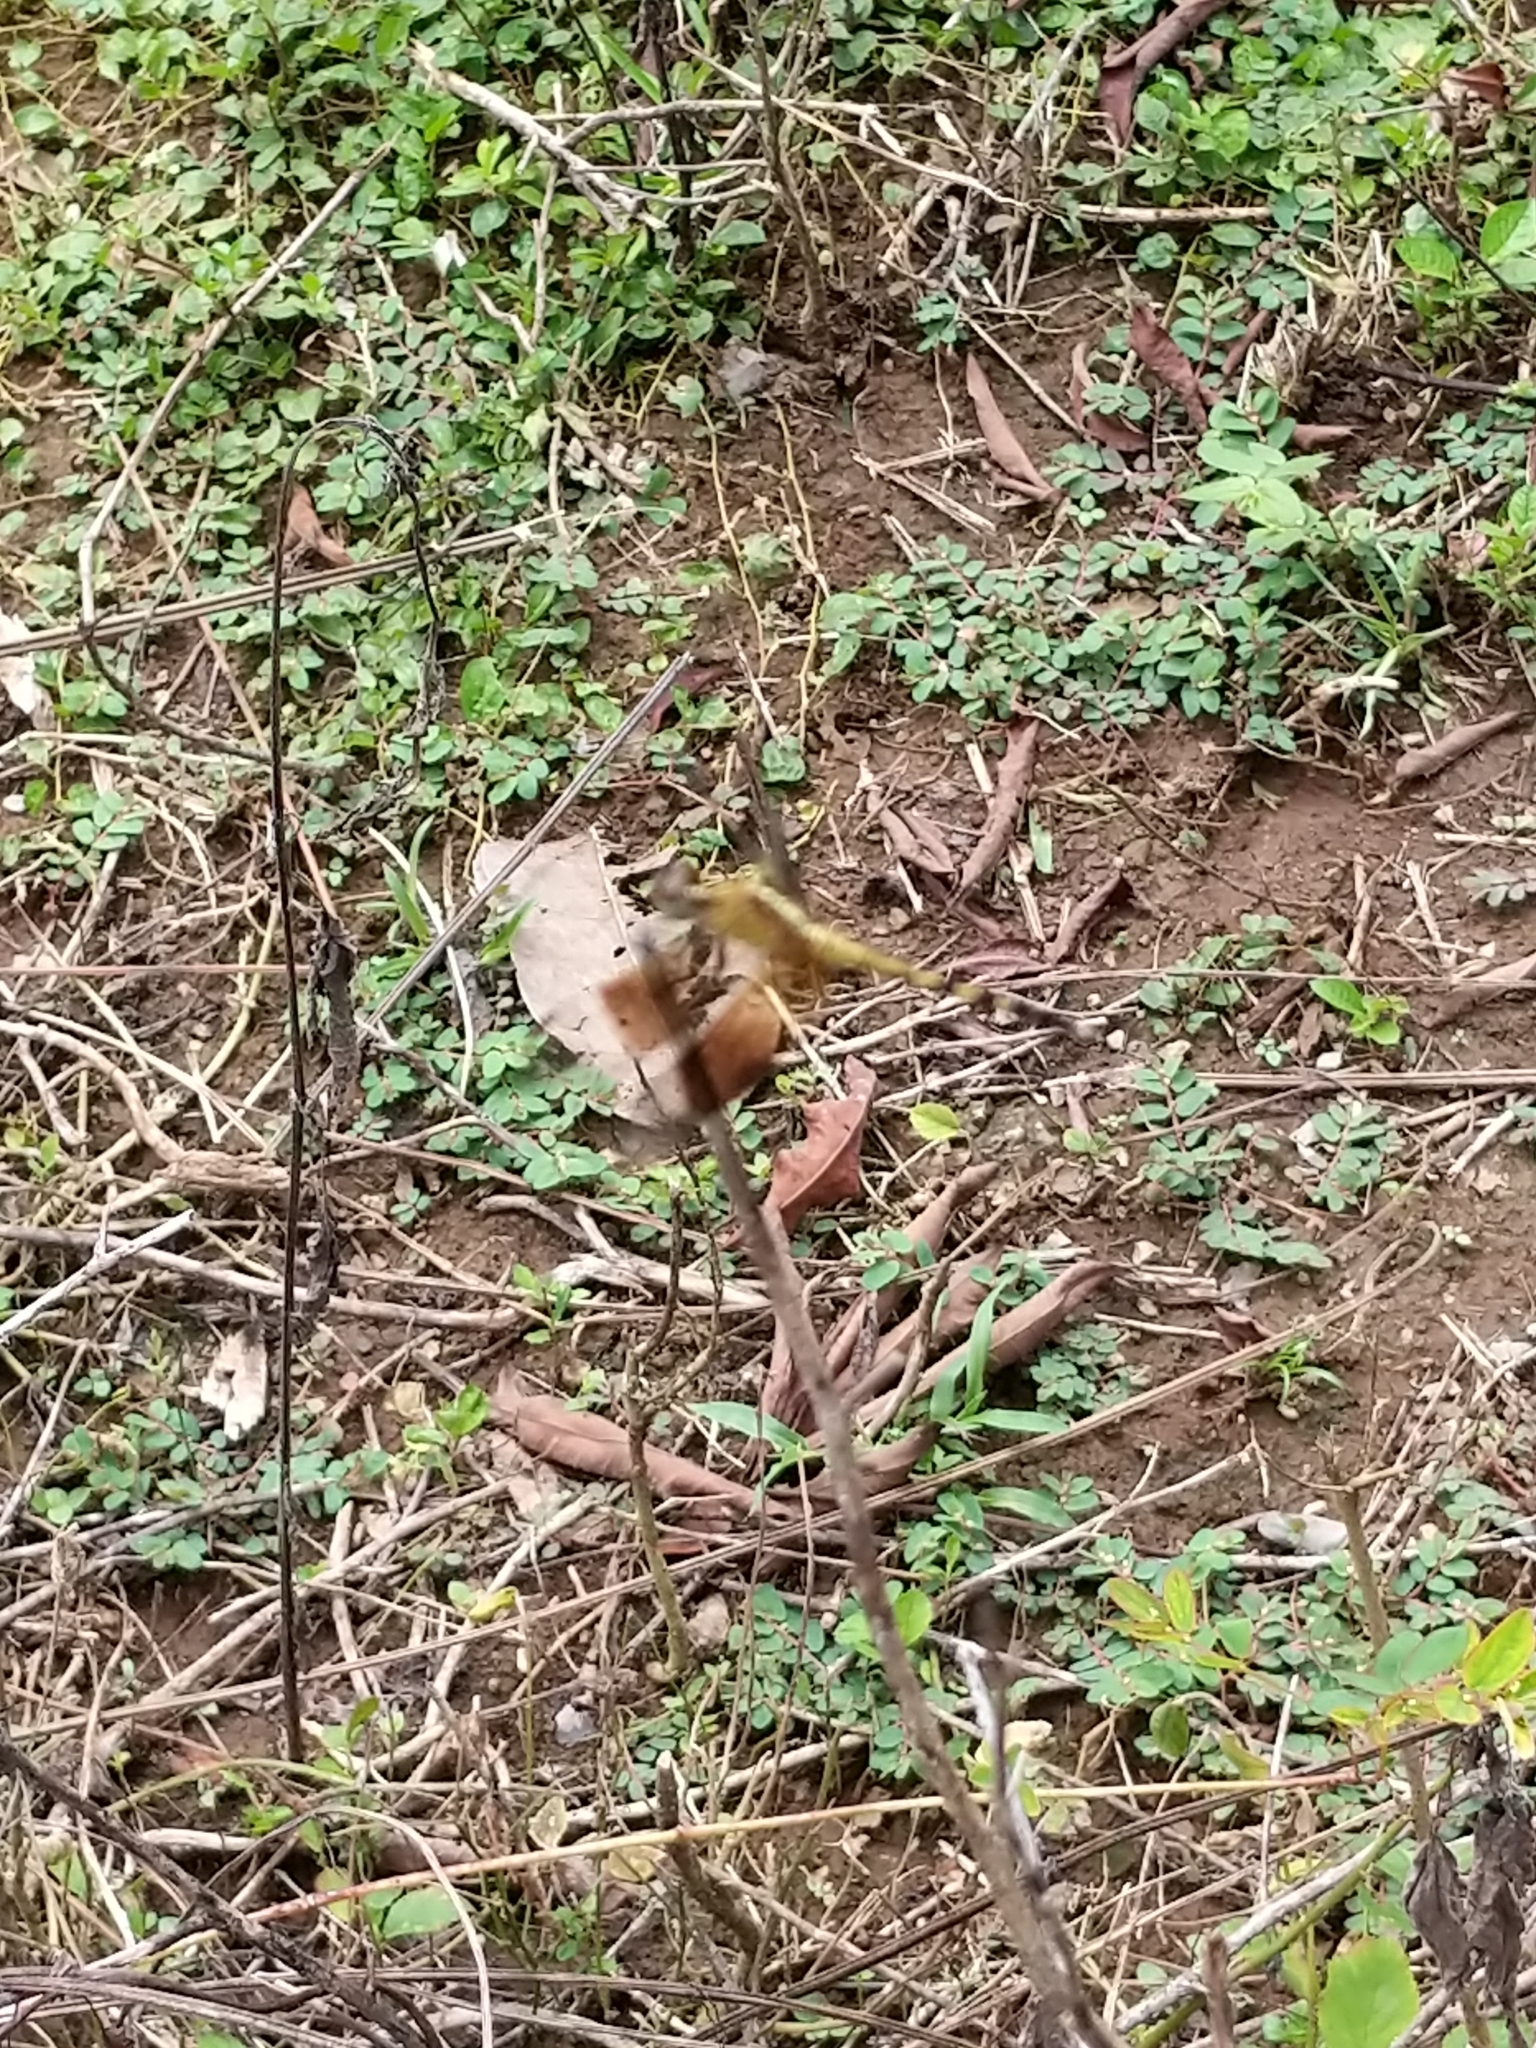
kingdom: Animalia
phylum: Arthropoda
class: Insecta
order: Odonata
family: Libellulidae
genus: Erythrodiplax
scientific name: Erythrodiplax funerea
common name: Black-winged dragonlet
